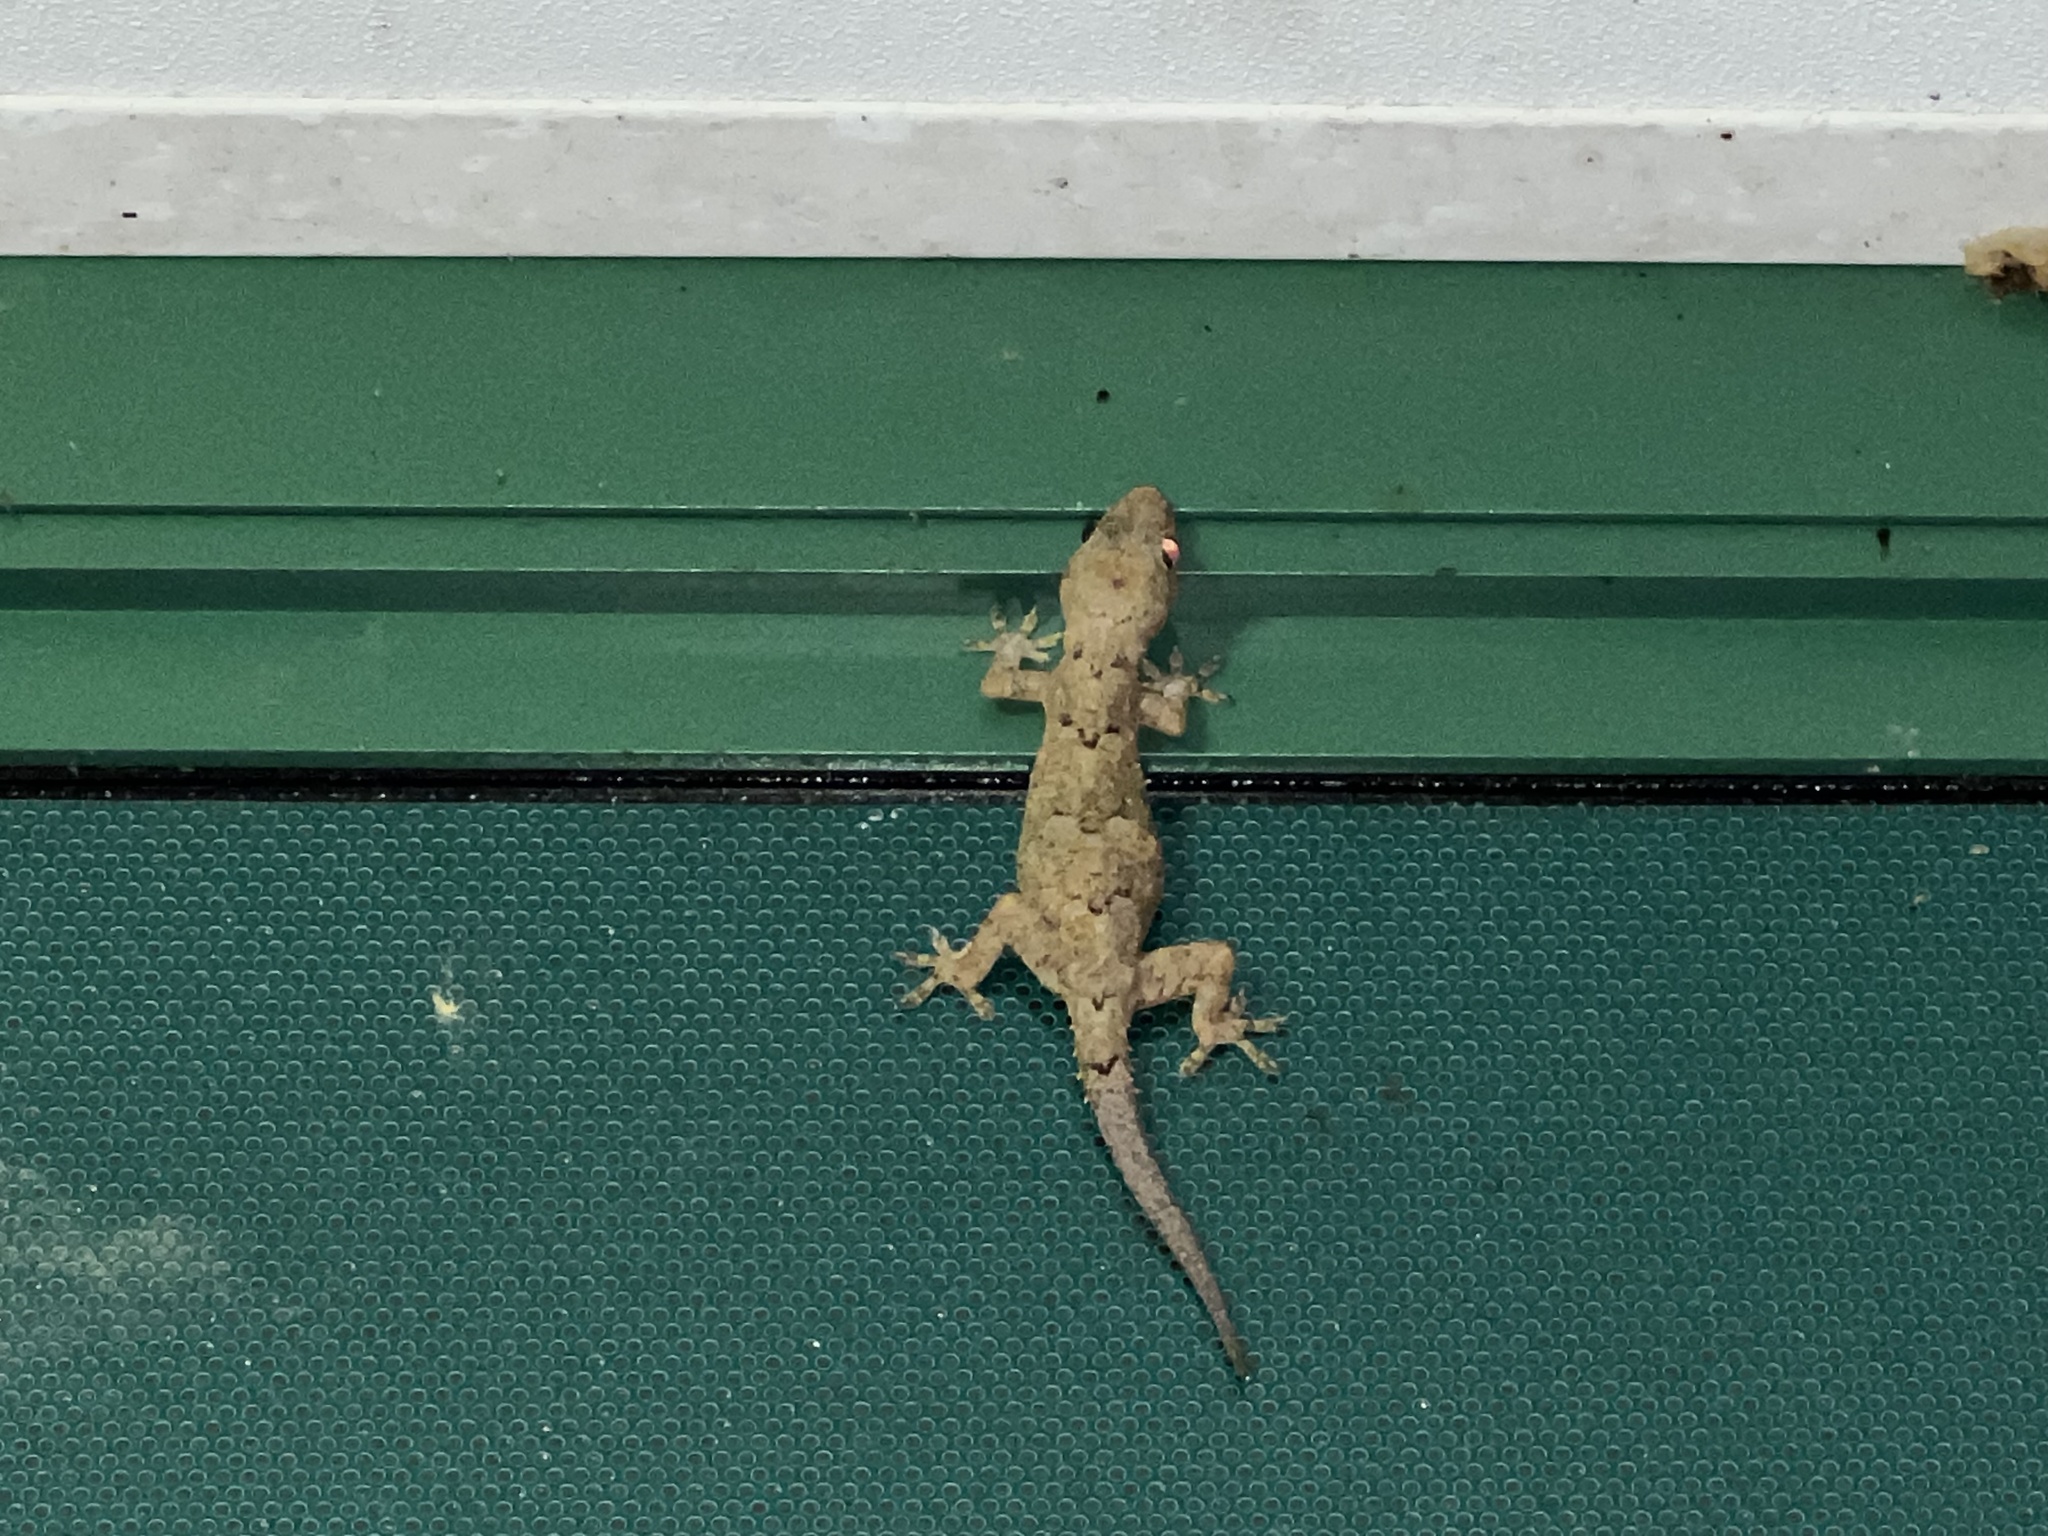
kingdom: Animalia
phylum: Chordata
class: Squamata
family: Gekkonidae
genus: Hemidactylus
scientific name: Hemidactylus mabouia
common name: House gecko
